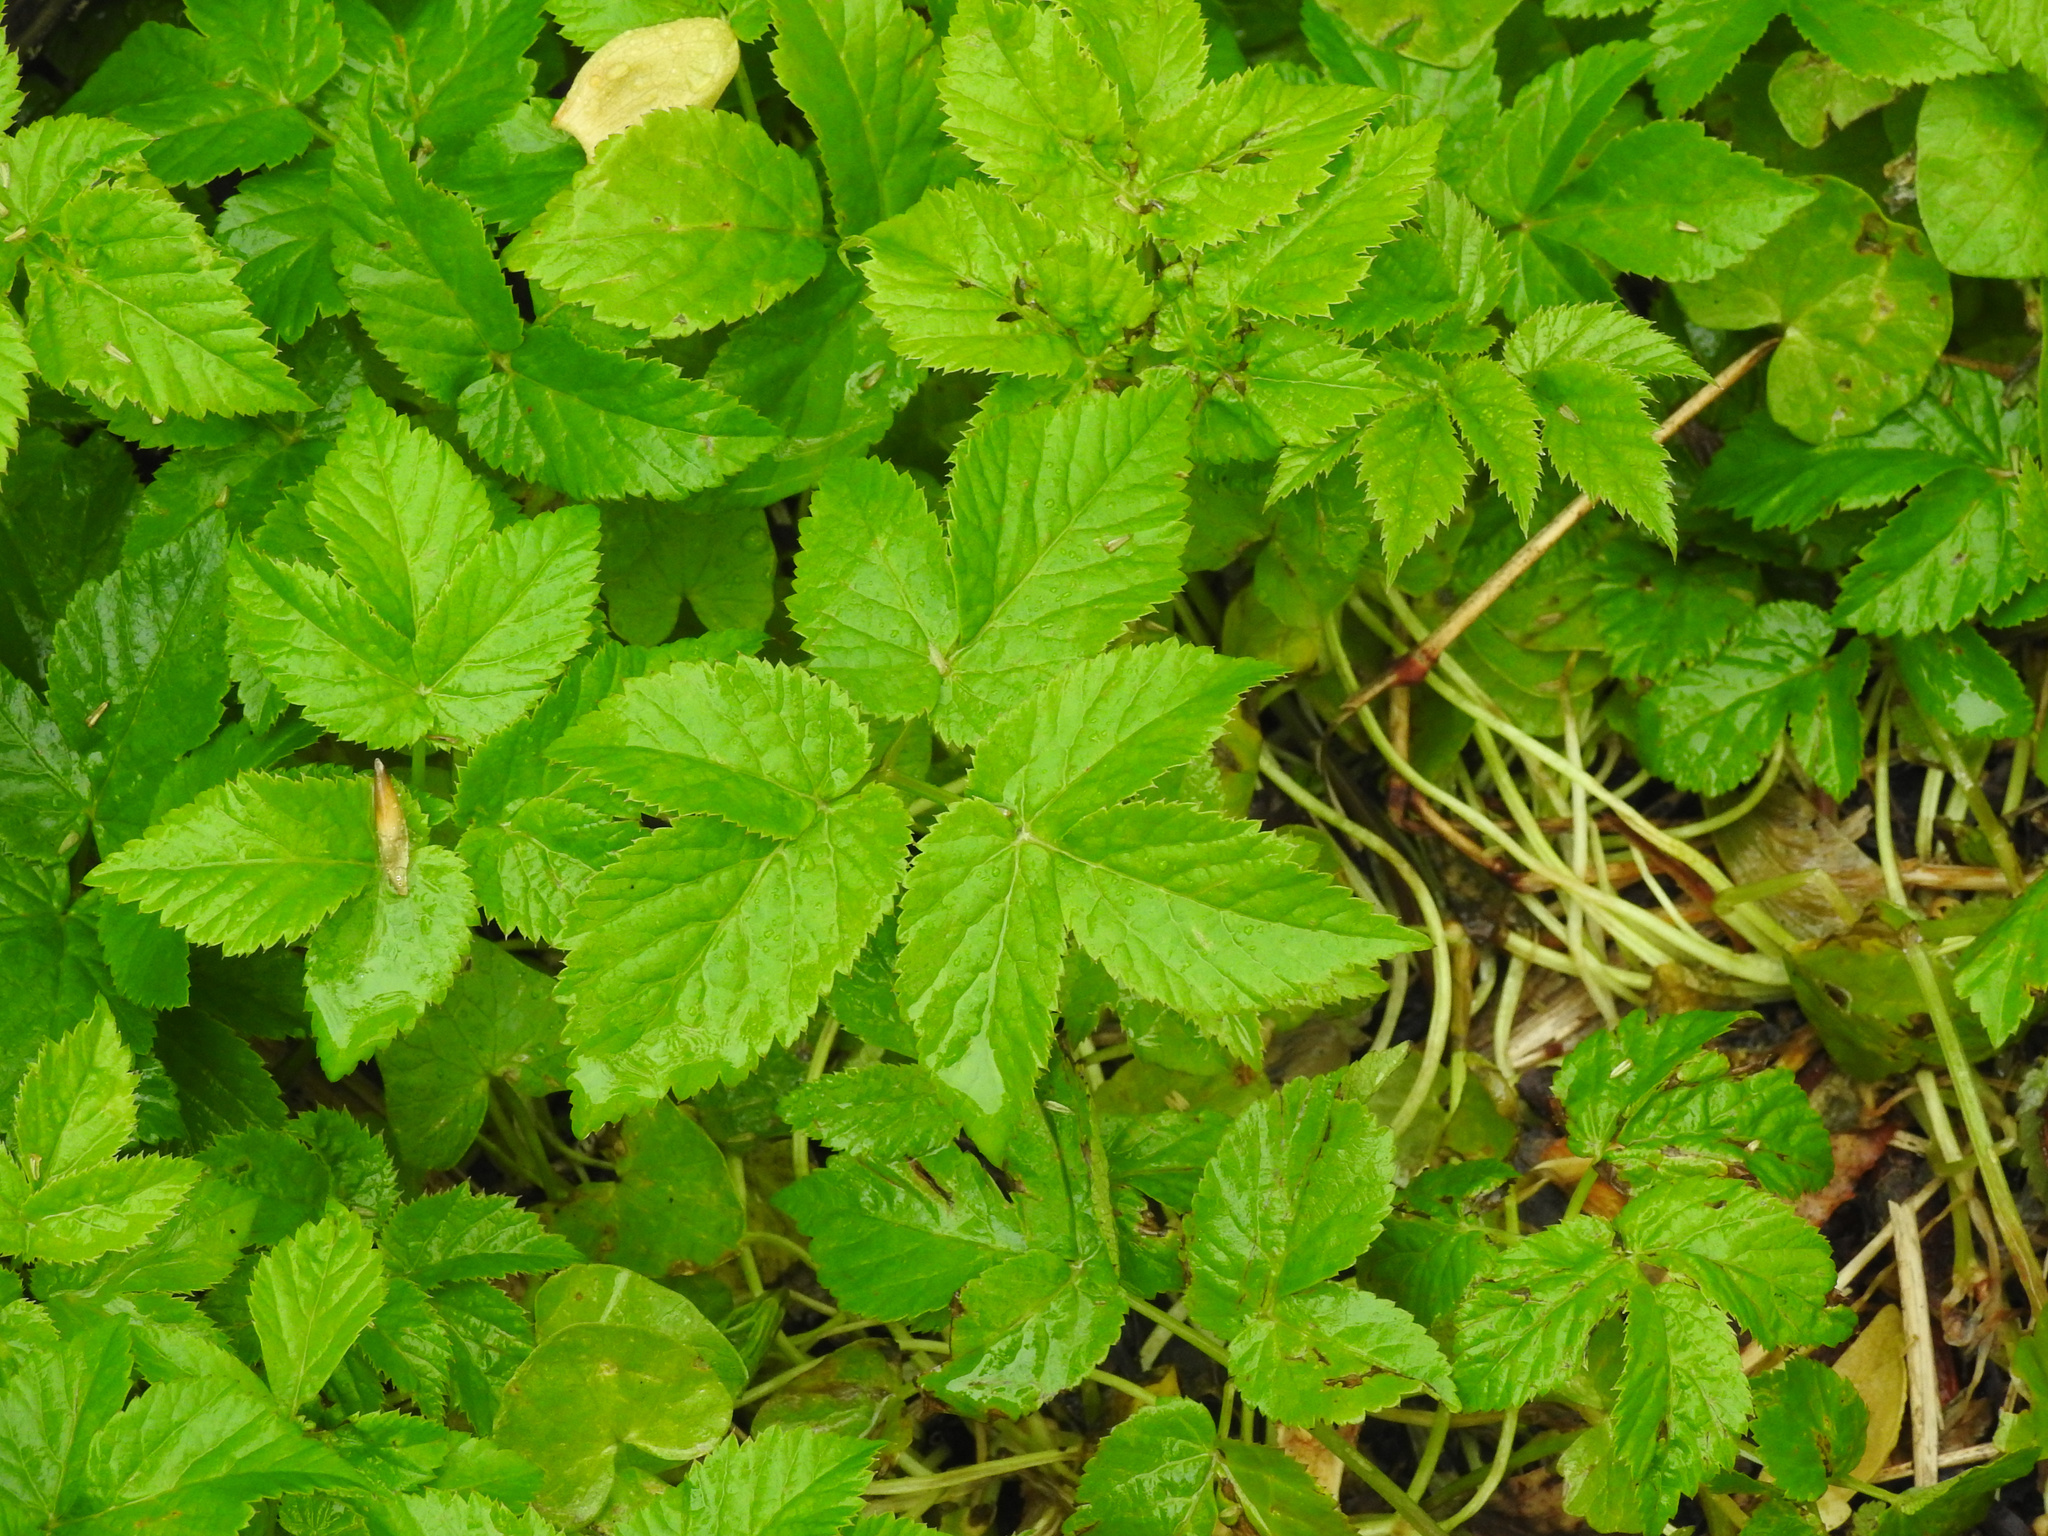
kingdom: Plantae
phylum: Tracheophyta
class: Magnoliopsida
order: Apiales
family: Apiaceae
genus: Aegopodium
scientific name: Aegopodium podagraria
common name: Ground-elder
